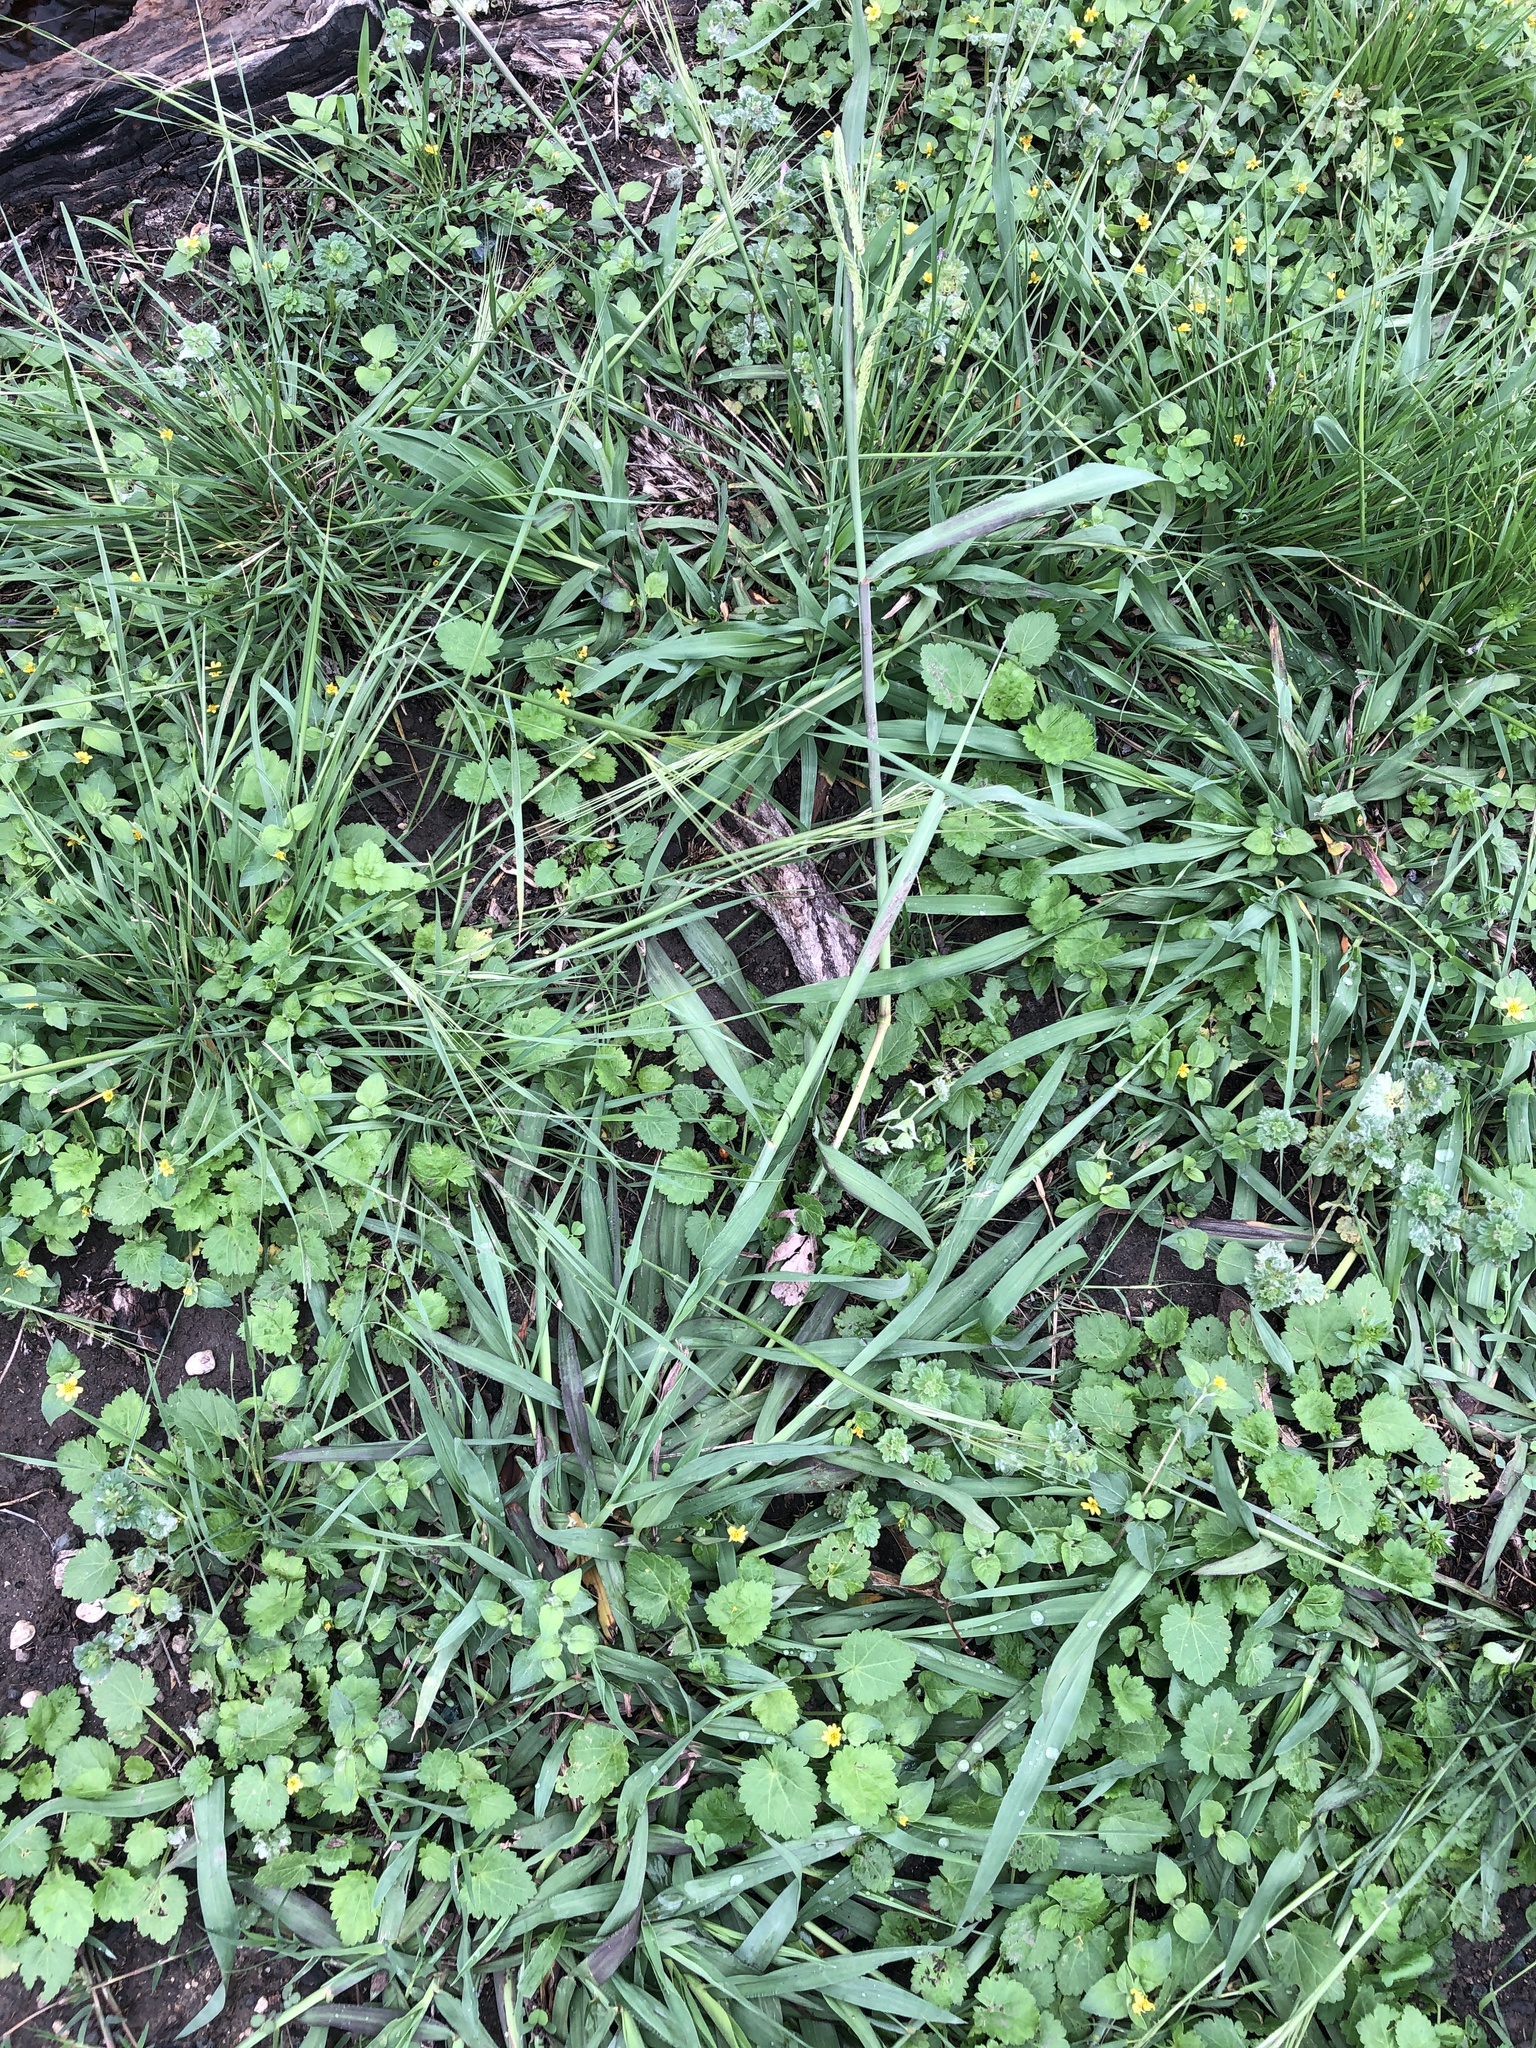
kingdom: Plantae
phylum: Tracheophyta
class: Liliopsida
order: Poales
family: Poaceae
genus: Paspalum
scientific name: Paspalum dilatatum
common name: Dallisgrass
